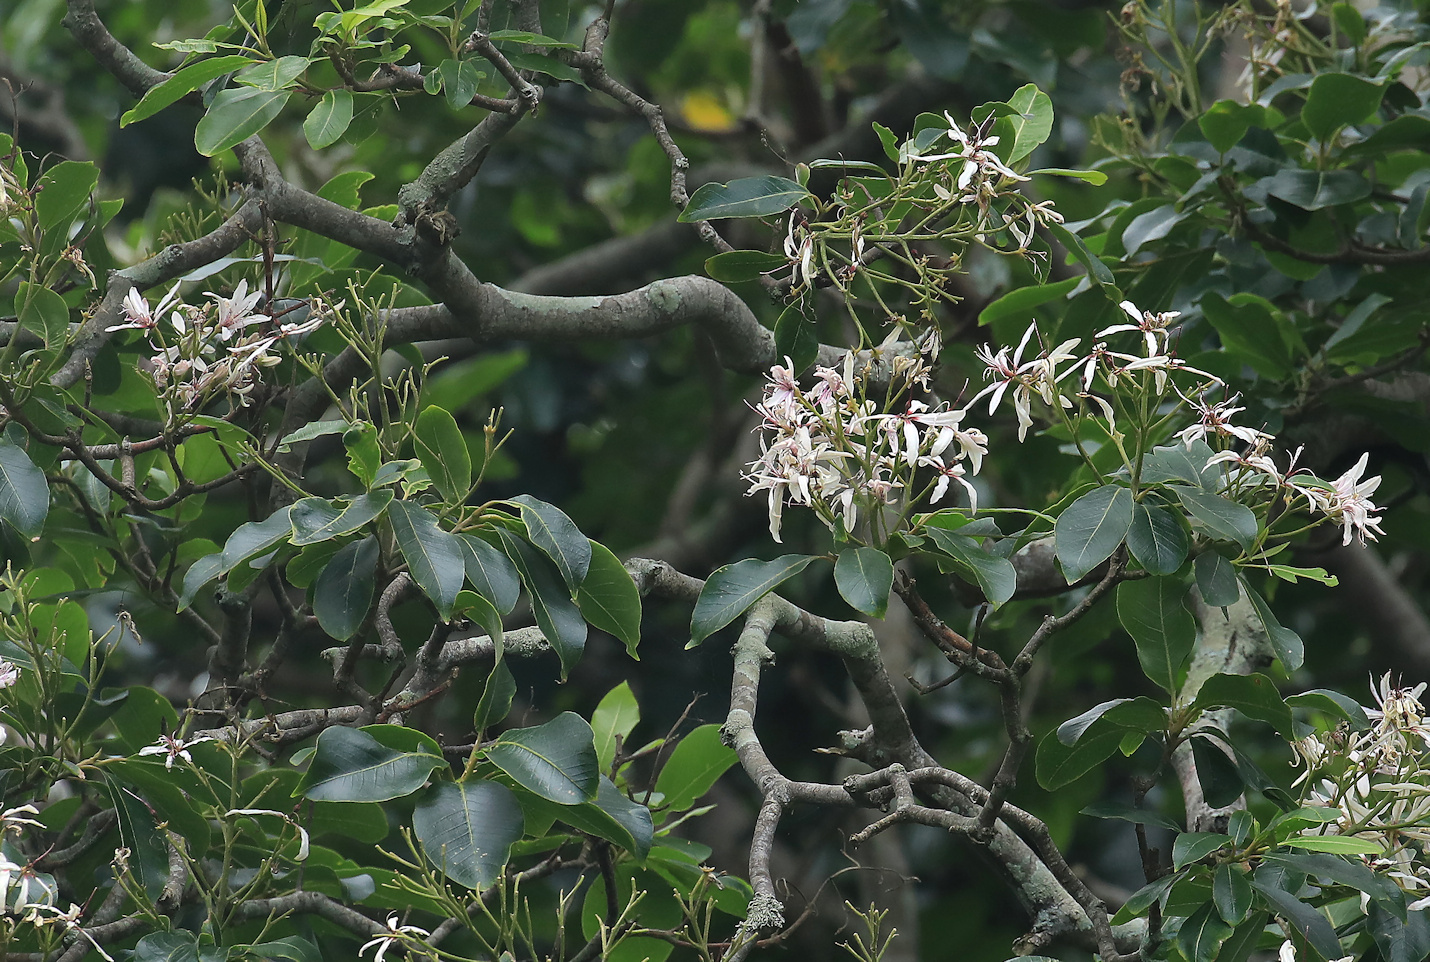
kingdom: Plantae
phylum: Tracheophyta
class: Magnoliopsida
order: Sapindales
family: Rutaceae
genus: Calodendrum
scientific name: Calodendrum capense
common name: Cape chestnut
